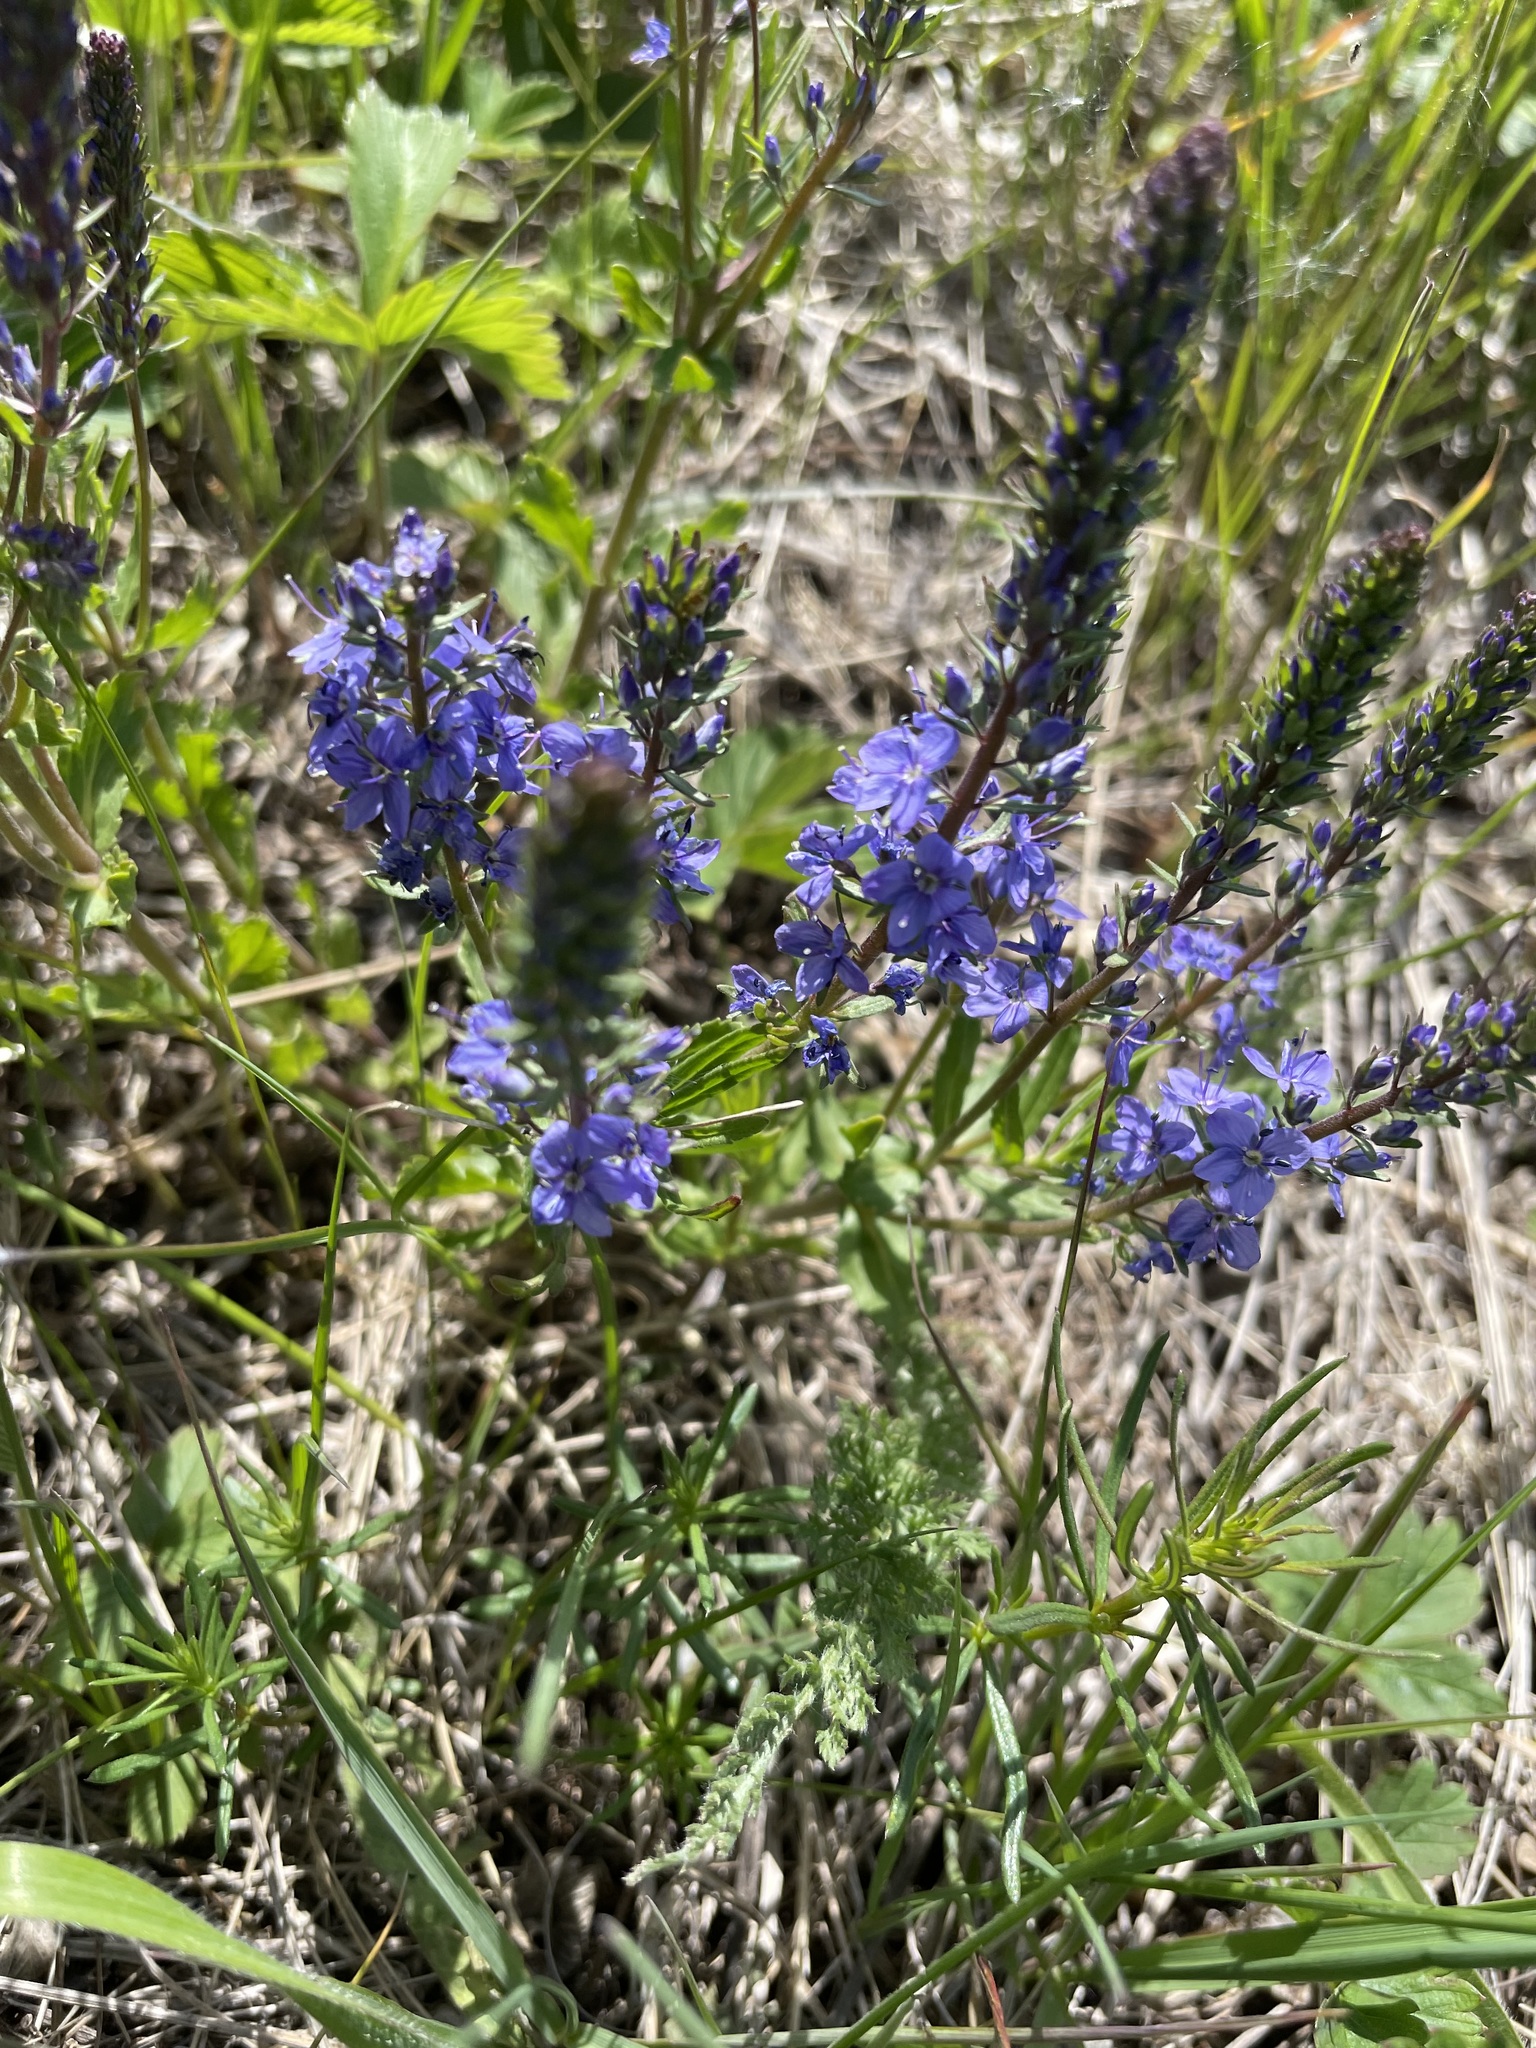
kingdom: Plantae
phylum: Tracheophyta
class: Magnoliopsida
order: Lamiales
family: Plantaginaceae
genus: Veronica
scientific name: Veronica prostrata
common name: Prostrate speedwell
